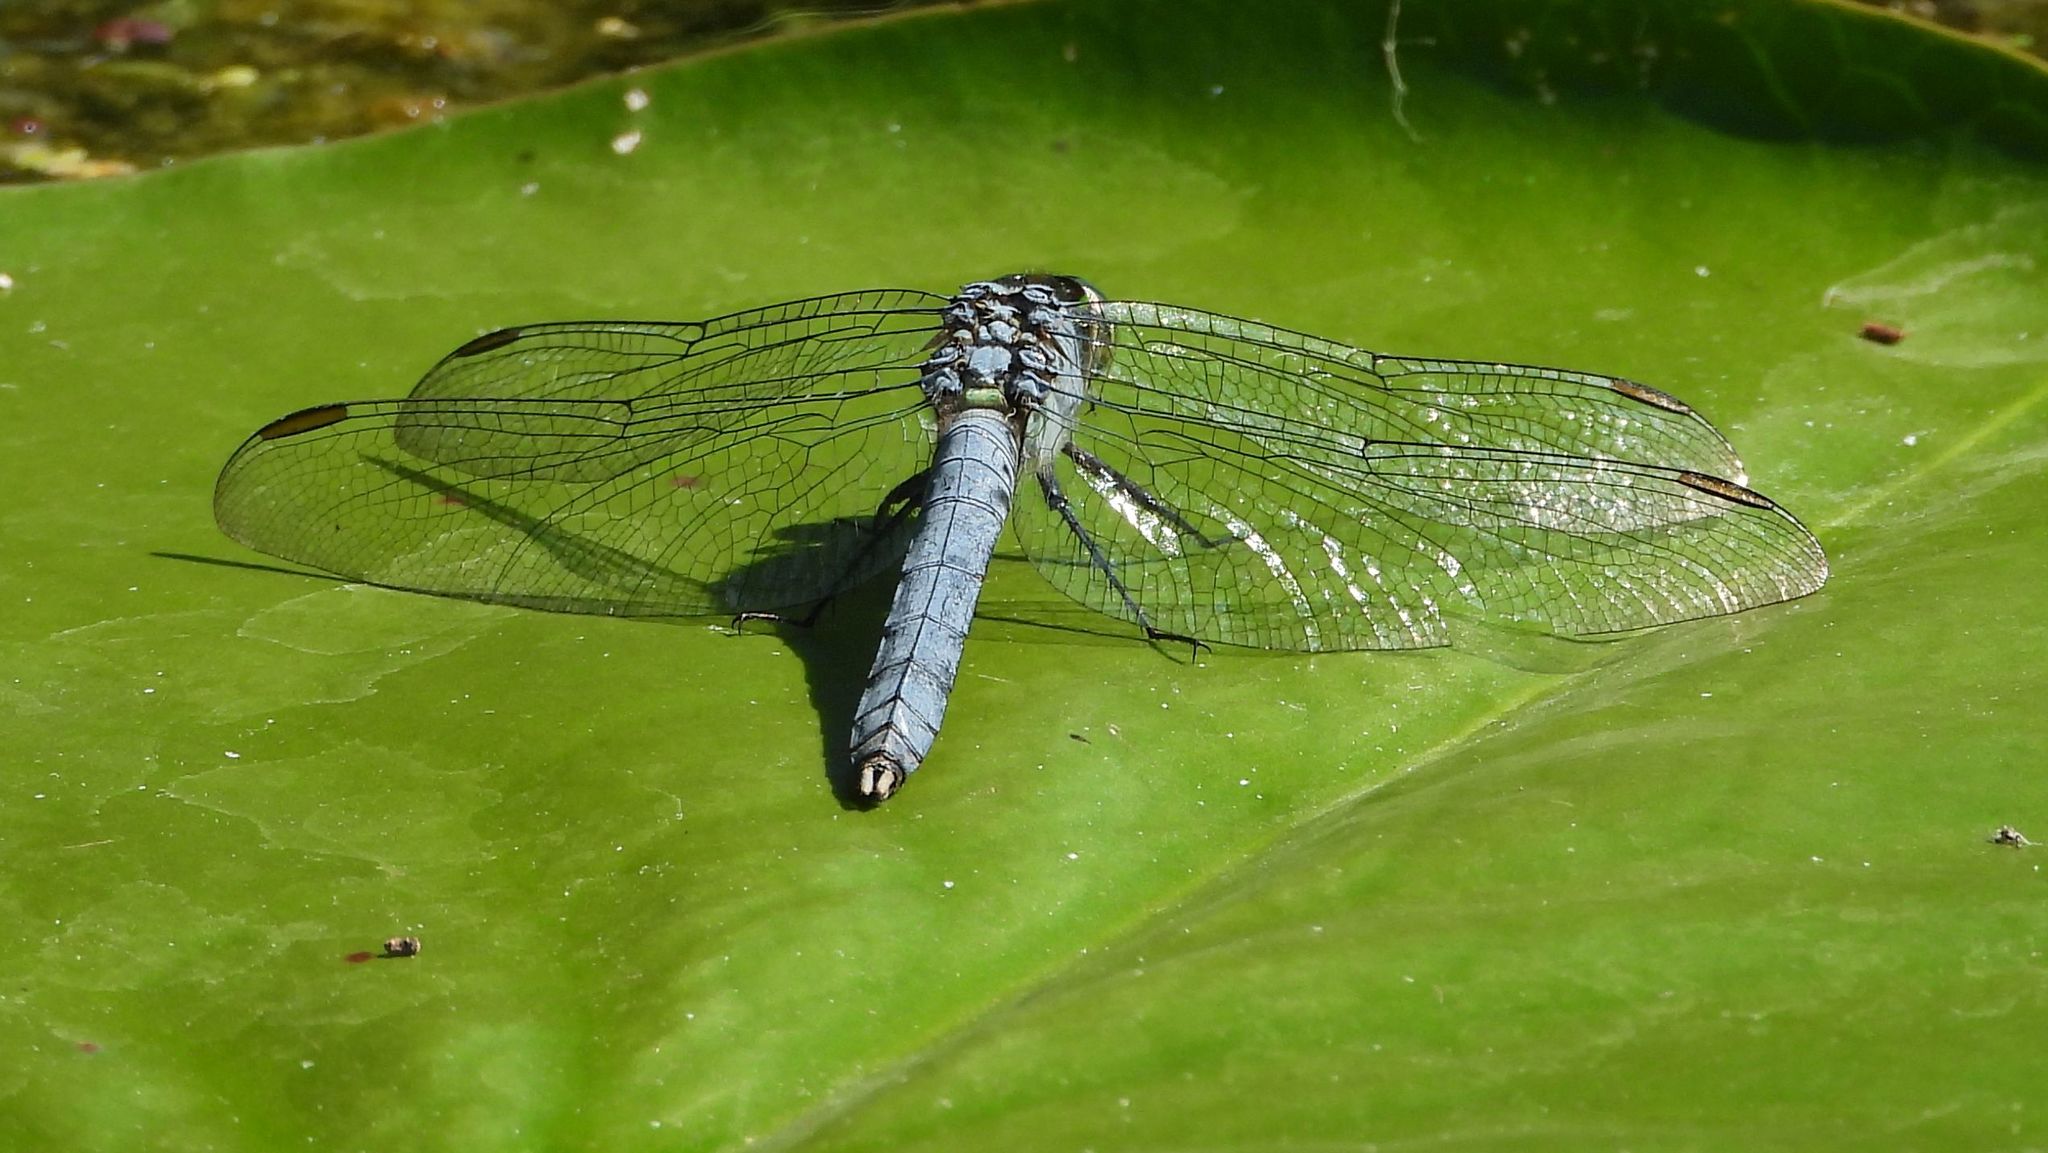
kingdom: Animalia
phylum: Arthropoda
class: Insecta
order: Odonata
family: Libellulidae
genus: Erythemis
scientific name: Erythemis simplicicollis
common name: Eastern pondhawk
